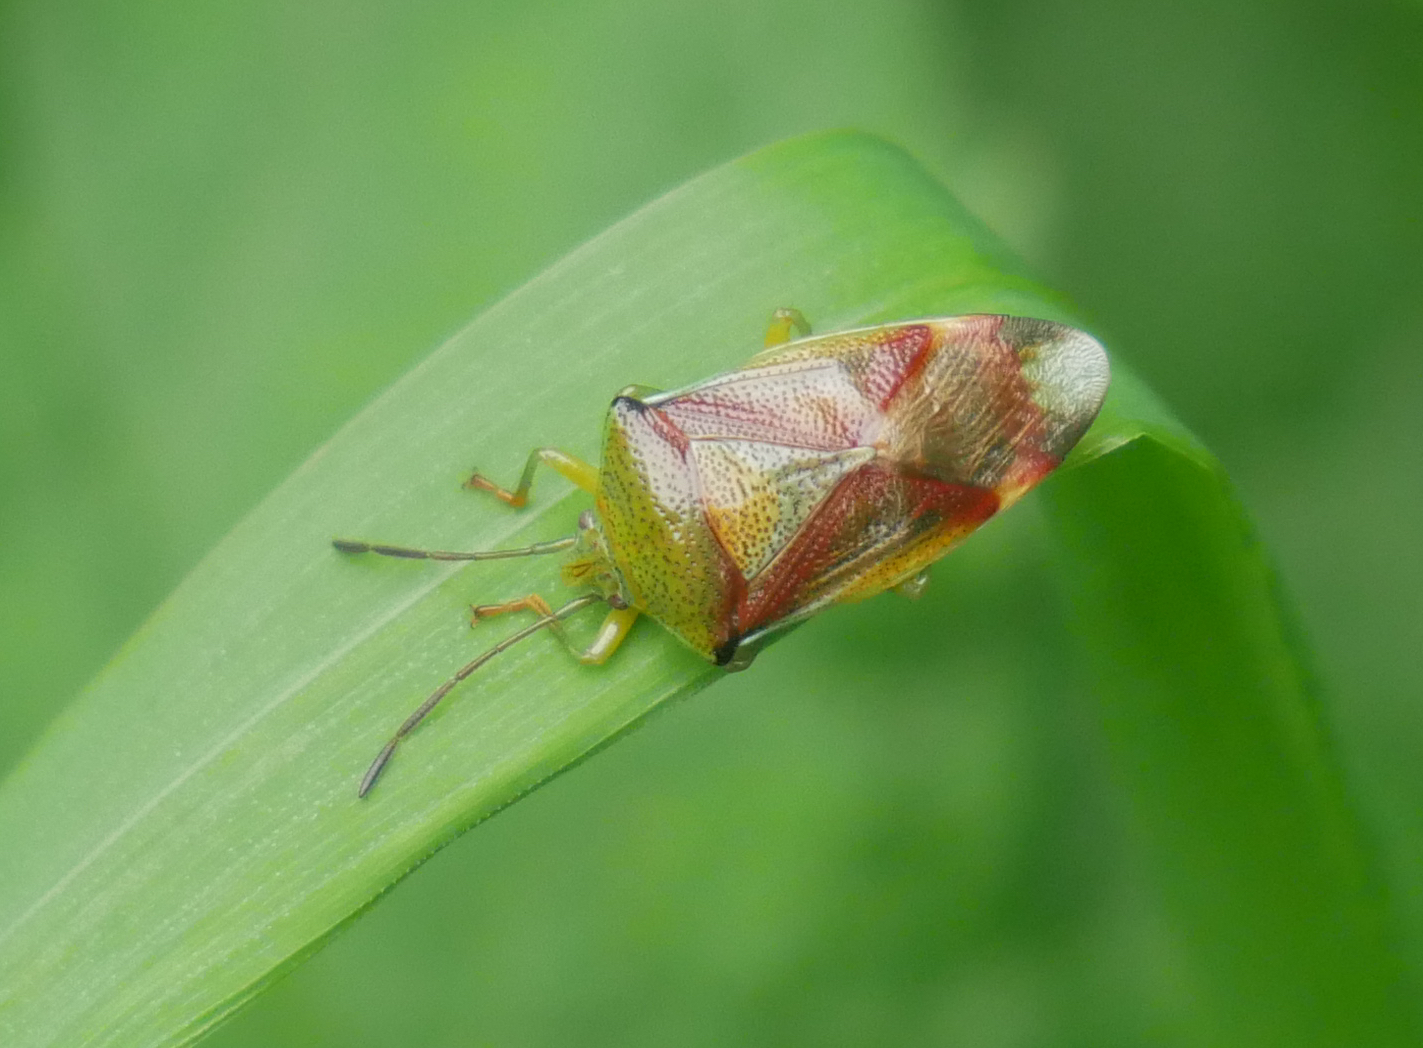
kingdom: Animalia
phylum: Arthropoda
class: Insecta
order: Hemiptera
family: Acanthosomatidae
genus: Elasmostethus
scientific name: Elasmostethus
